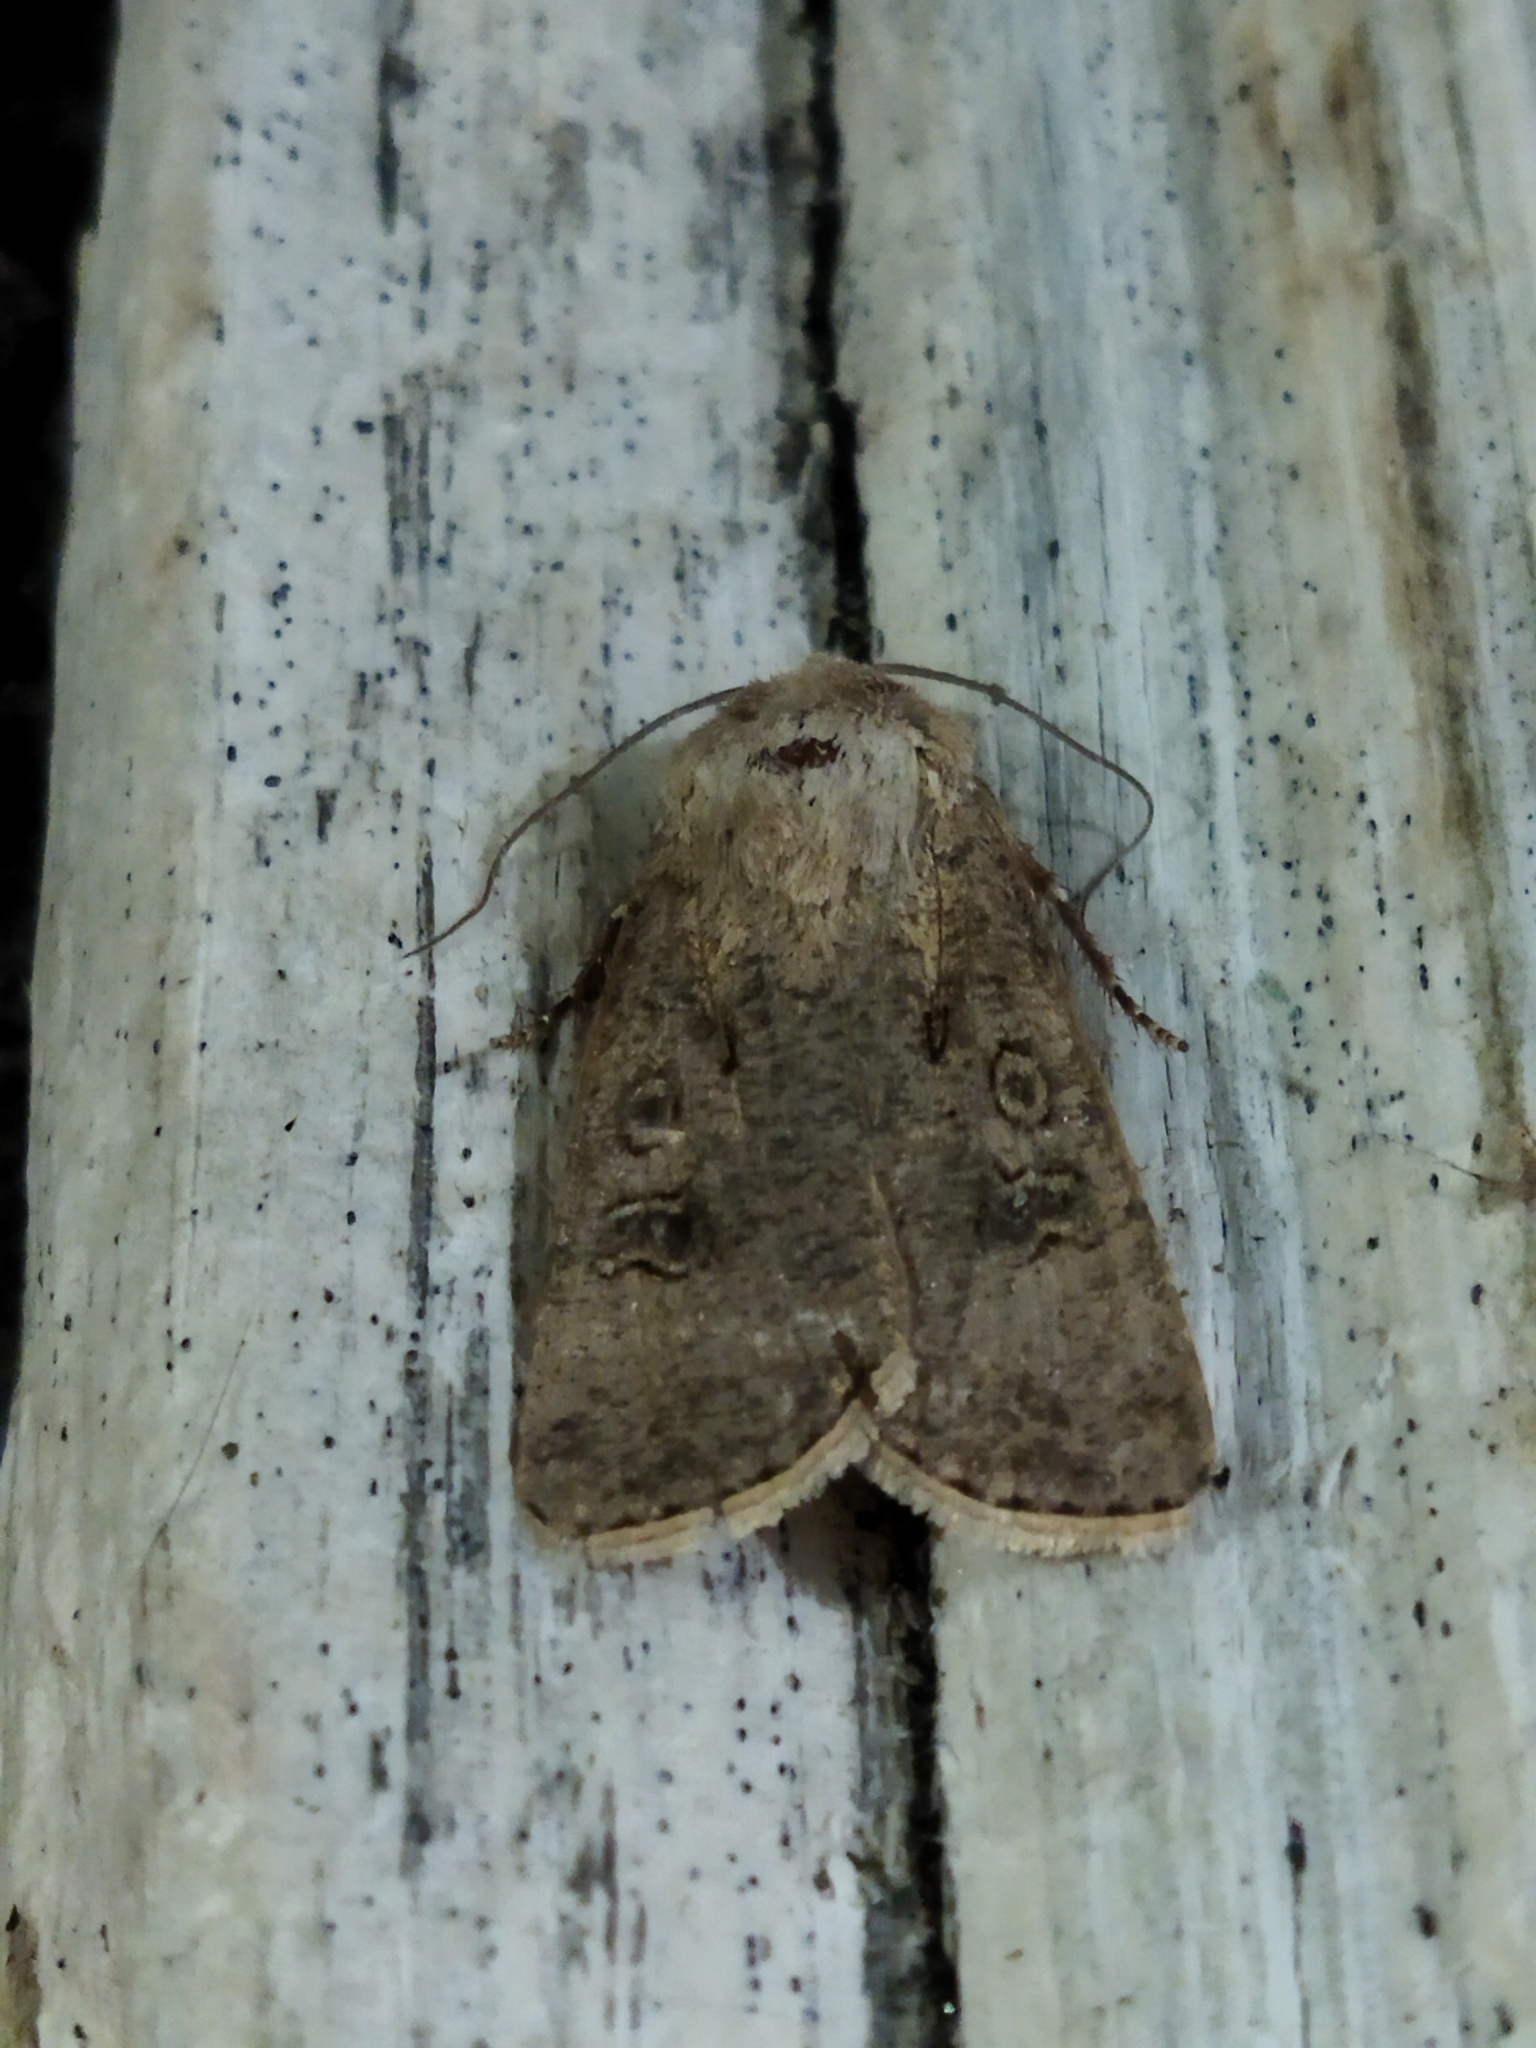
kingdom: Animalia
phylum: Arthropoda
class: Insecta
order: Lepidoptera
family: Noctuidae
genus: Agrotis
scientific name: Agrotis segetum
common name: Turnip moth
